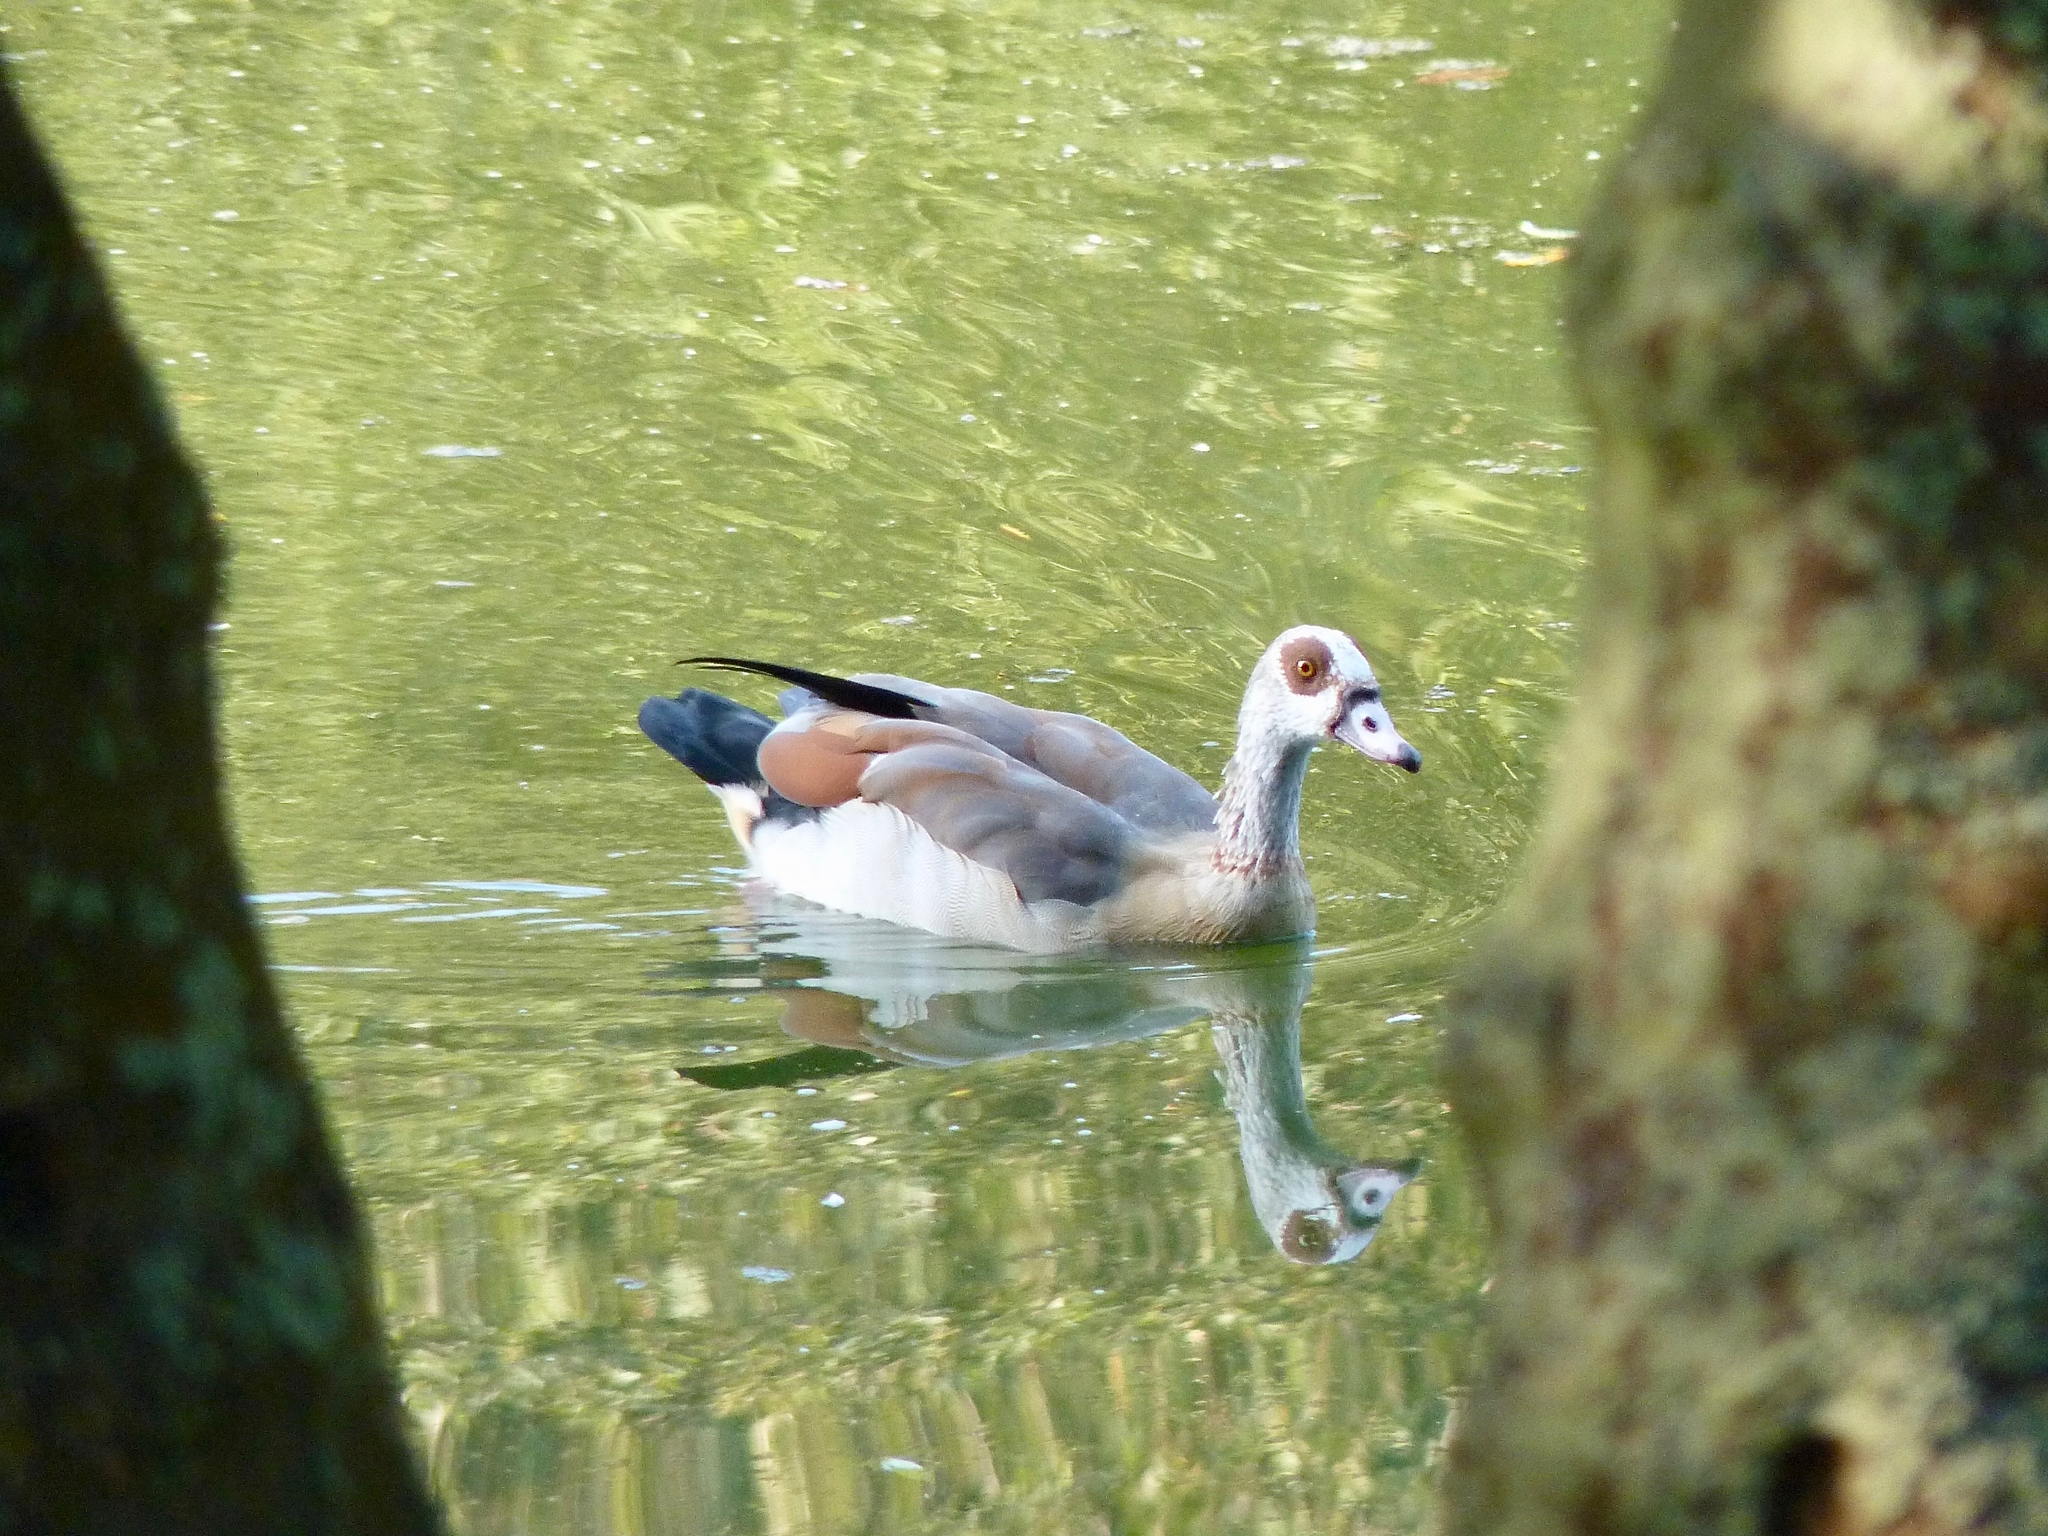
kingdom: Animalia
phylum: Chordata
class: Aves
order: Anseriformes
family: Anatidae
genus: Alopochen
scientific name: Alopochen aegyptiaca
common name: Egyptian goose
